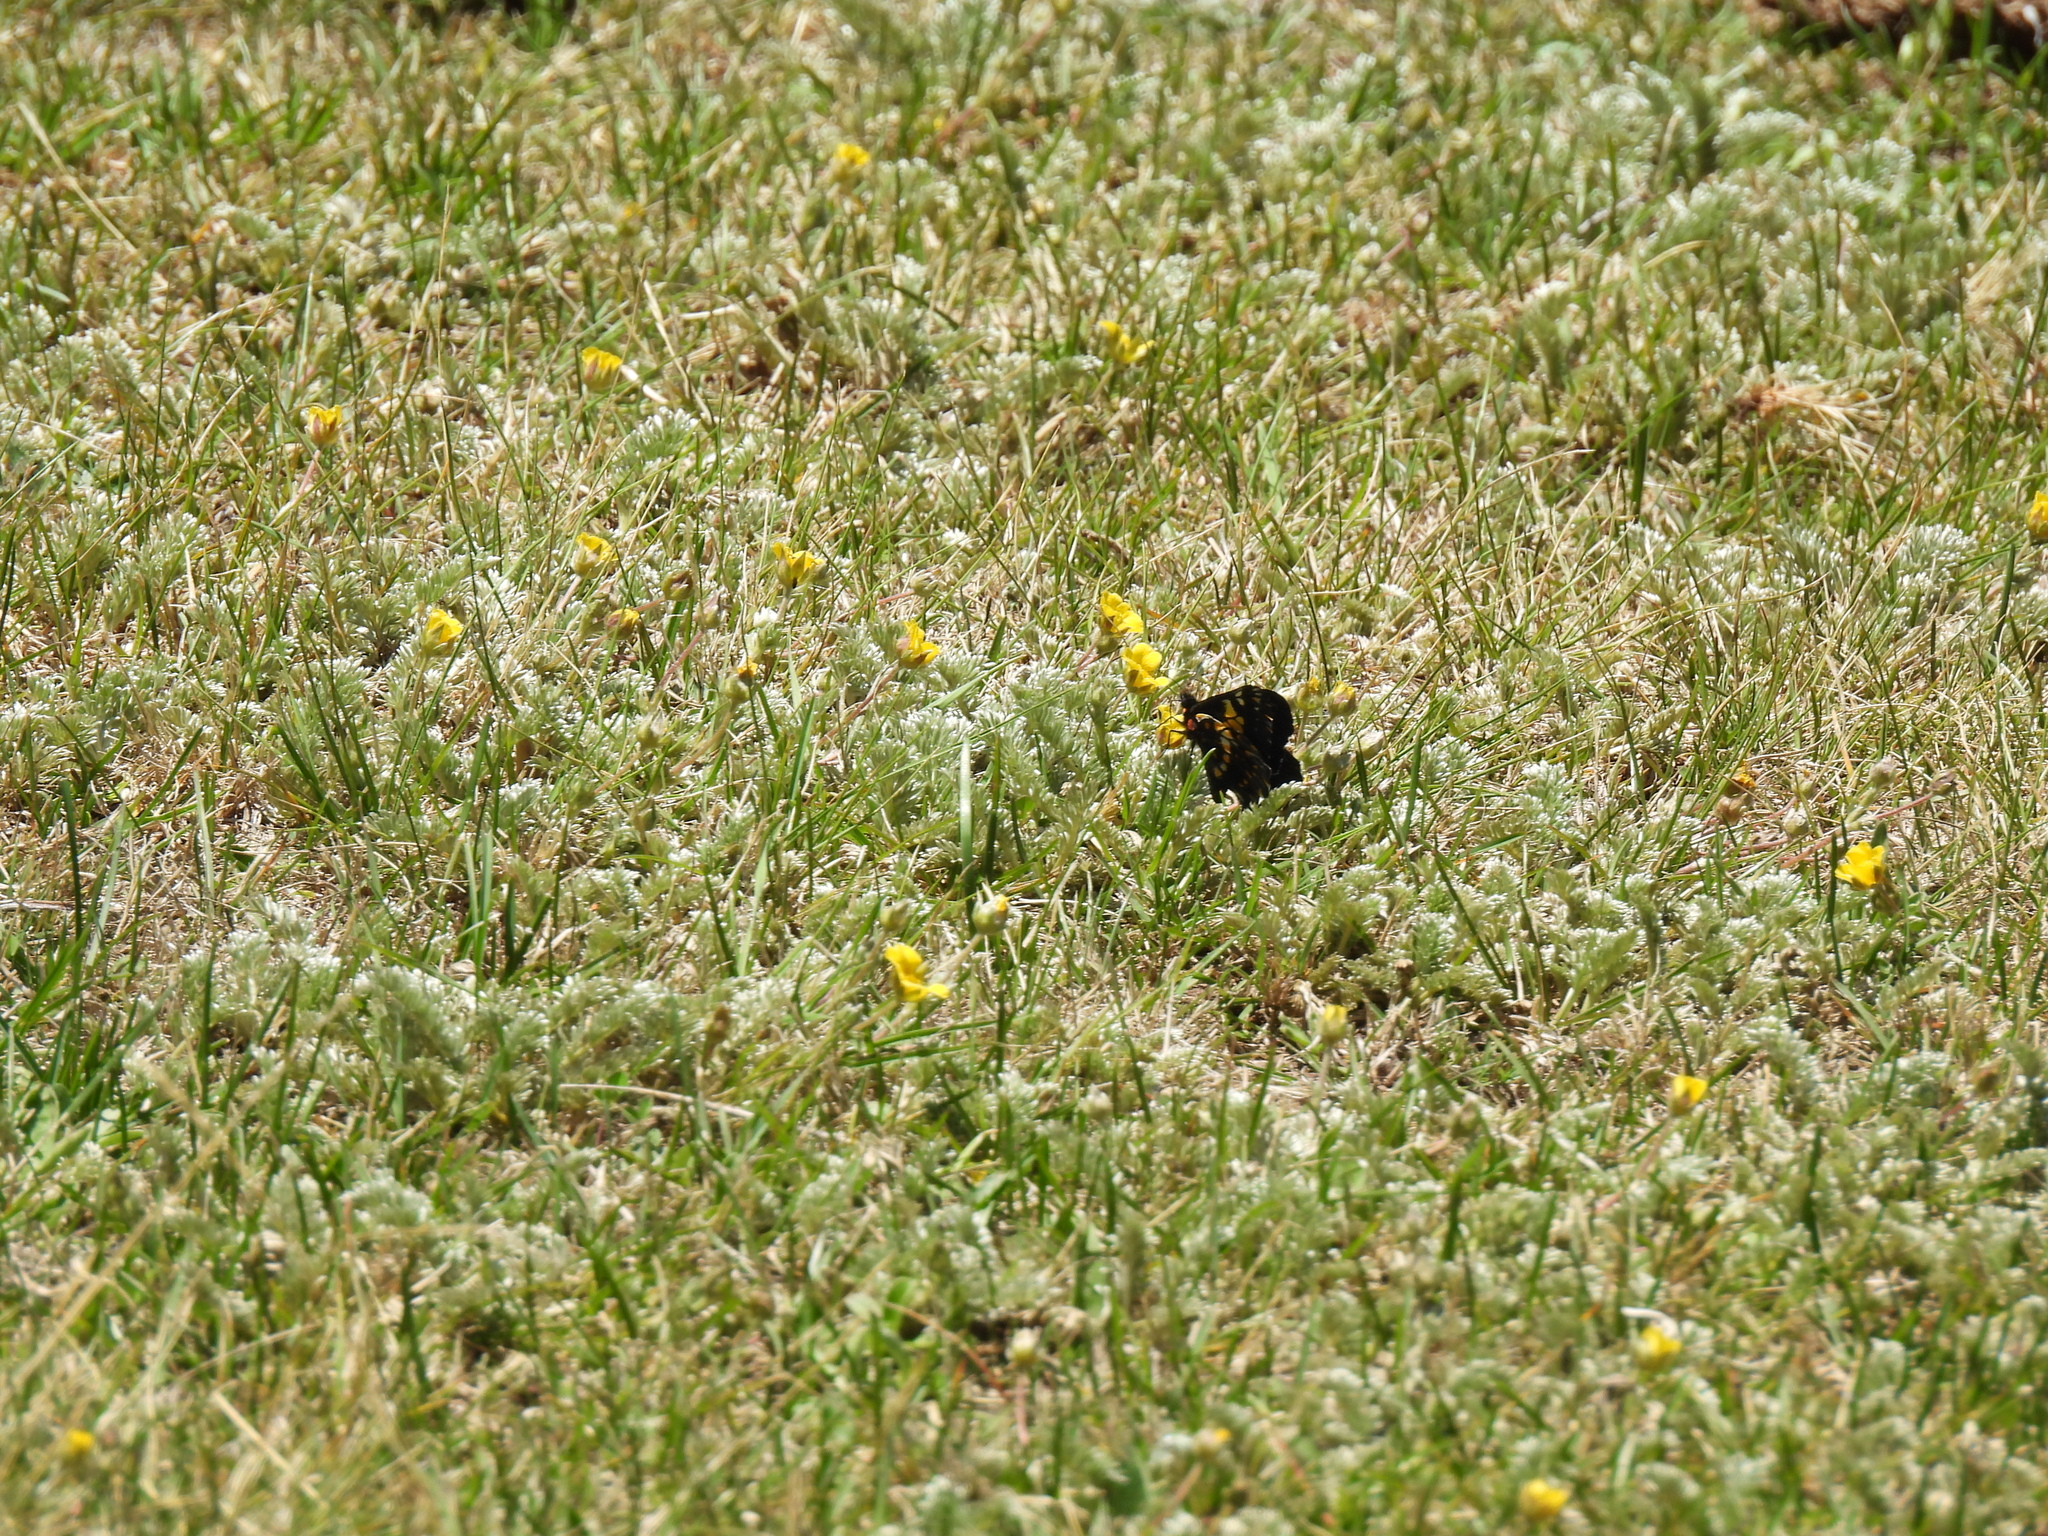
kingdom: Animalia
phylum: Arthropoda
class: Insecta
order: Lepidoptera
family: Pieridae
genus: Archonias
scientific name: Archonias teutila
